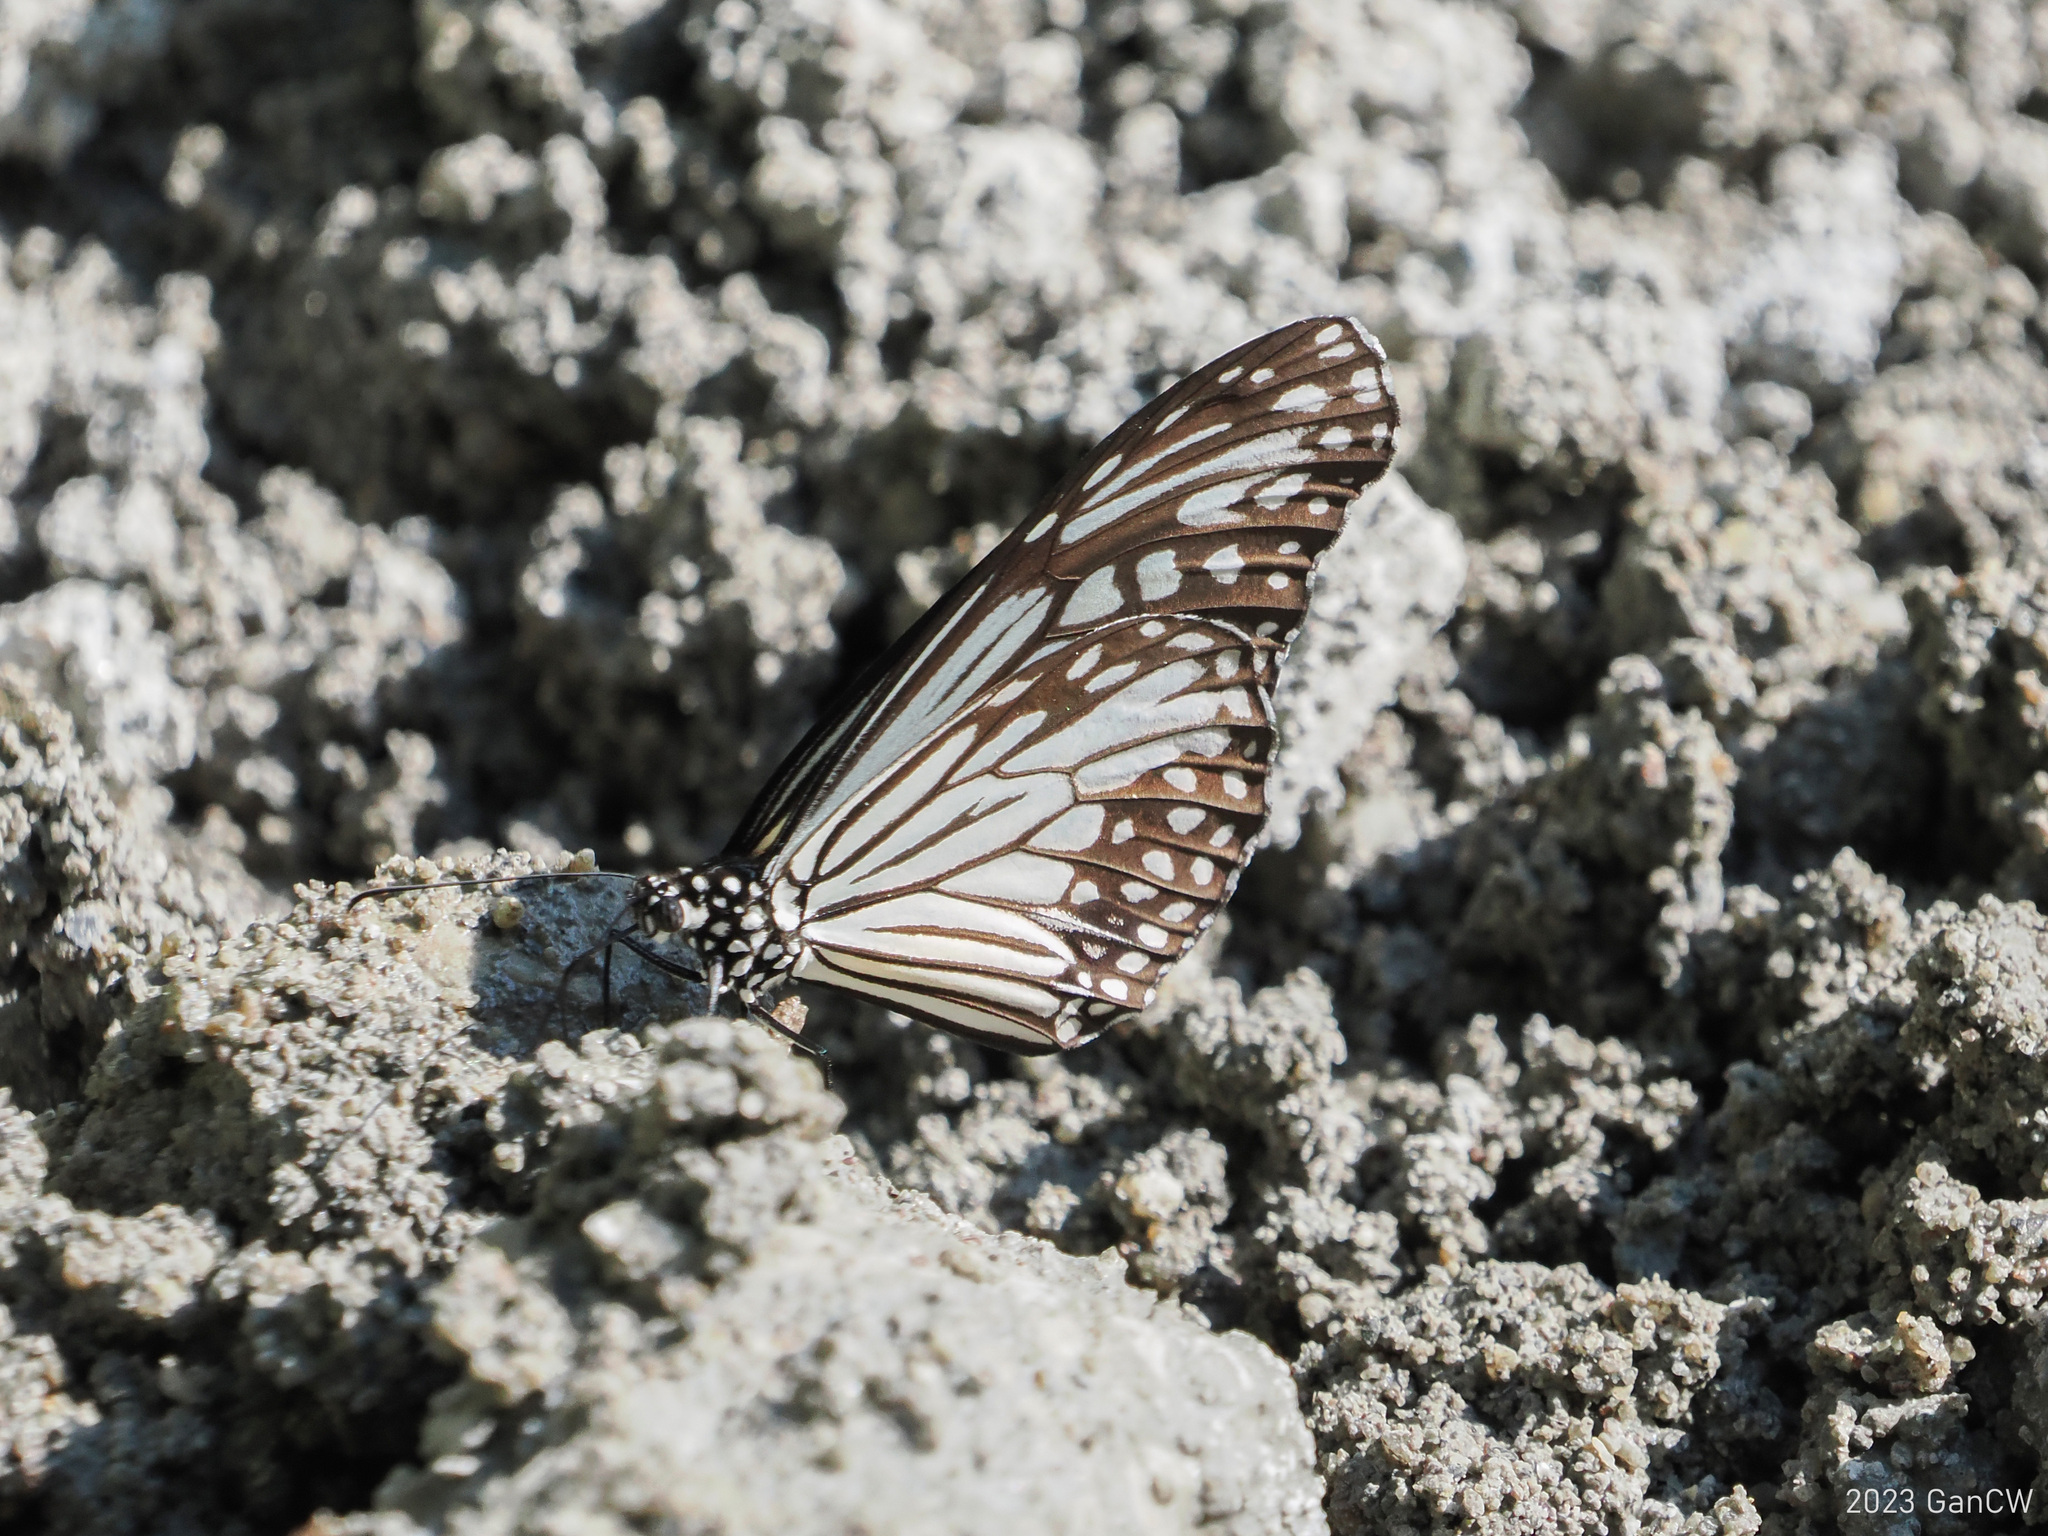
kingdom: Animalia
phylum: Arthropoda
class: Insecta
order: Lepidoptera
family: Nymphalidae
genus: Parantica
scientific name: Parantica aglea
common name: Glassy tiger
